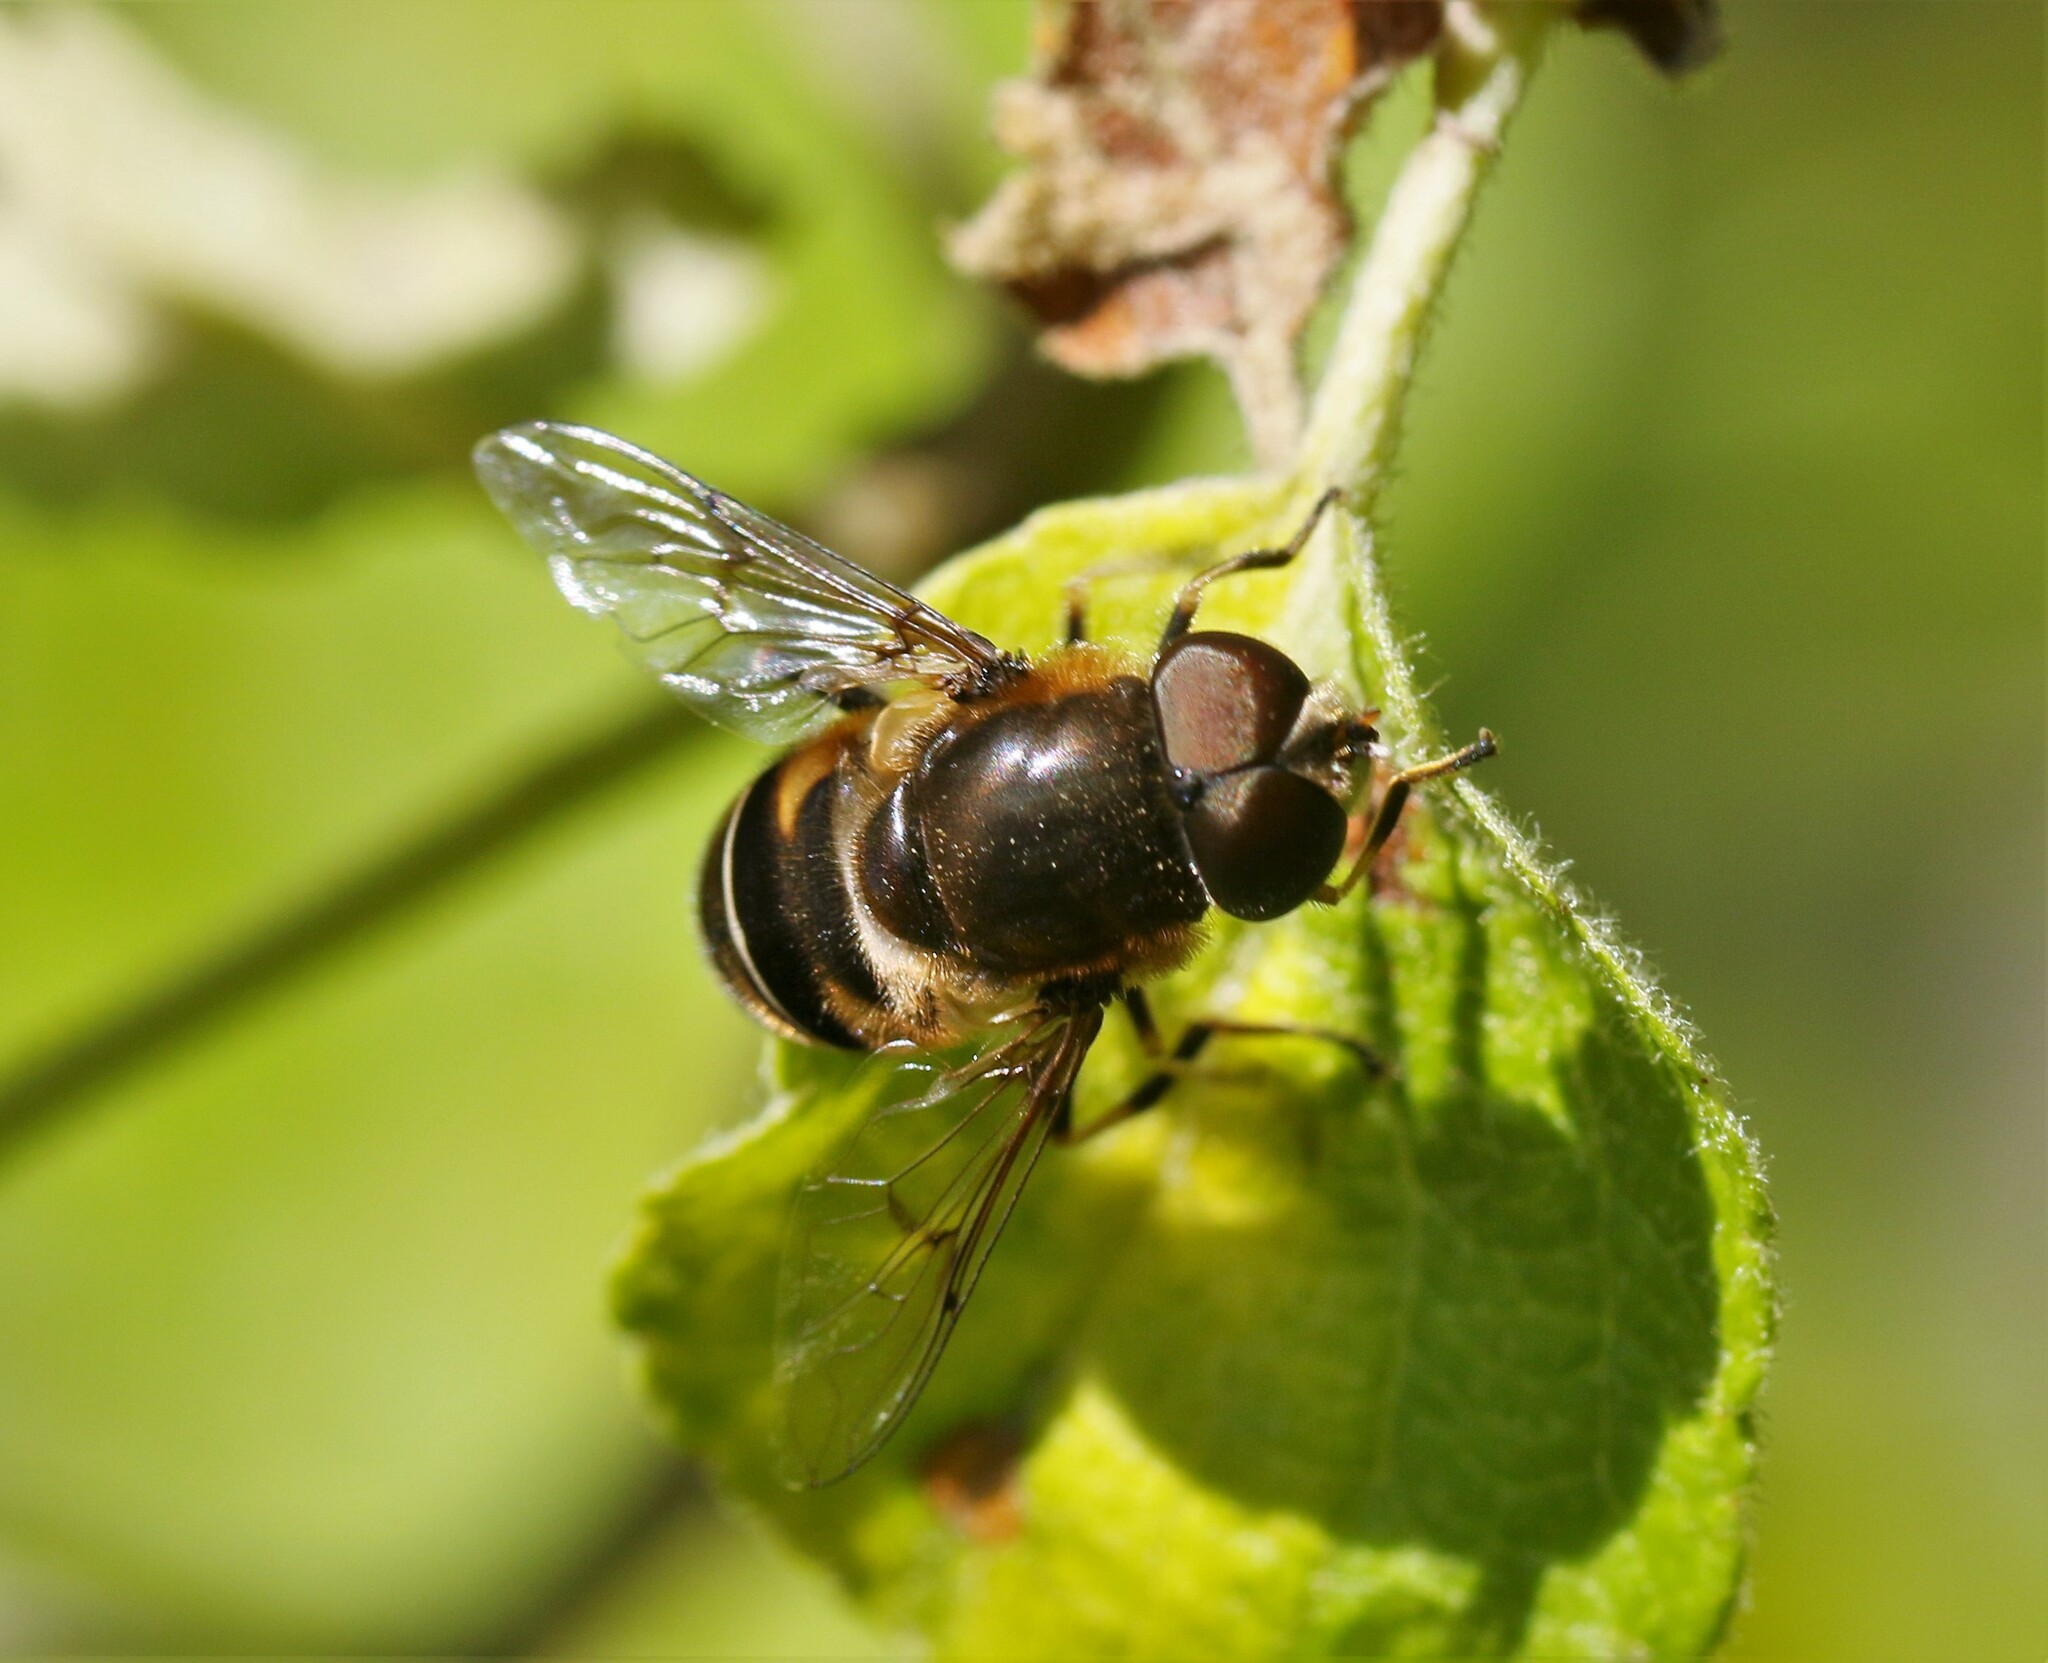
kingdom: Animalia
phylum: Arthropoda
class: Insecta
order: Diptera
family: Syrphidae
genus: Eristalis
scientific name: Eristalis obscura
